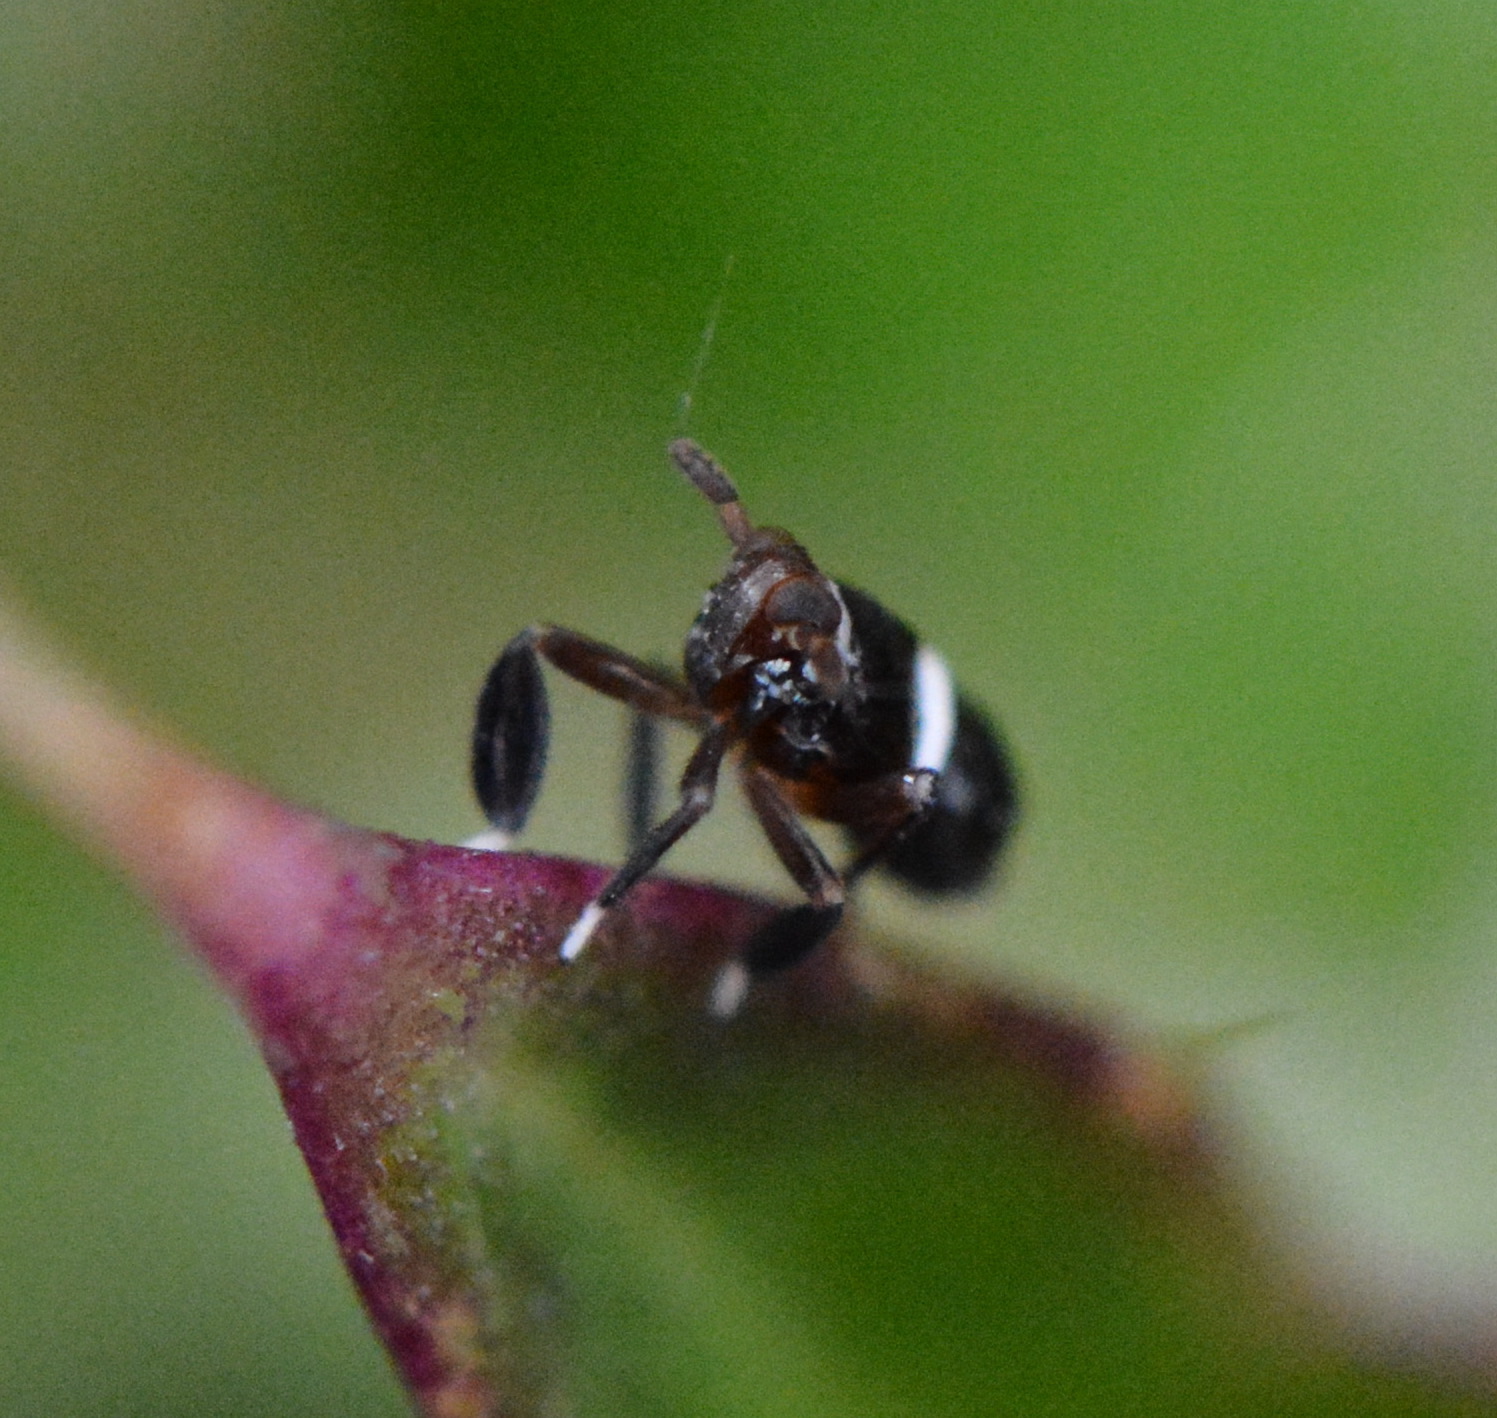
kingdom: Animalia
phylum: Arthropoda
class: Insecta
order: Hemiptera
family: Delphacidae
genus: Pissonotus
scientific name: Pissonotus nitens
